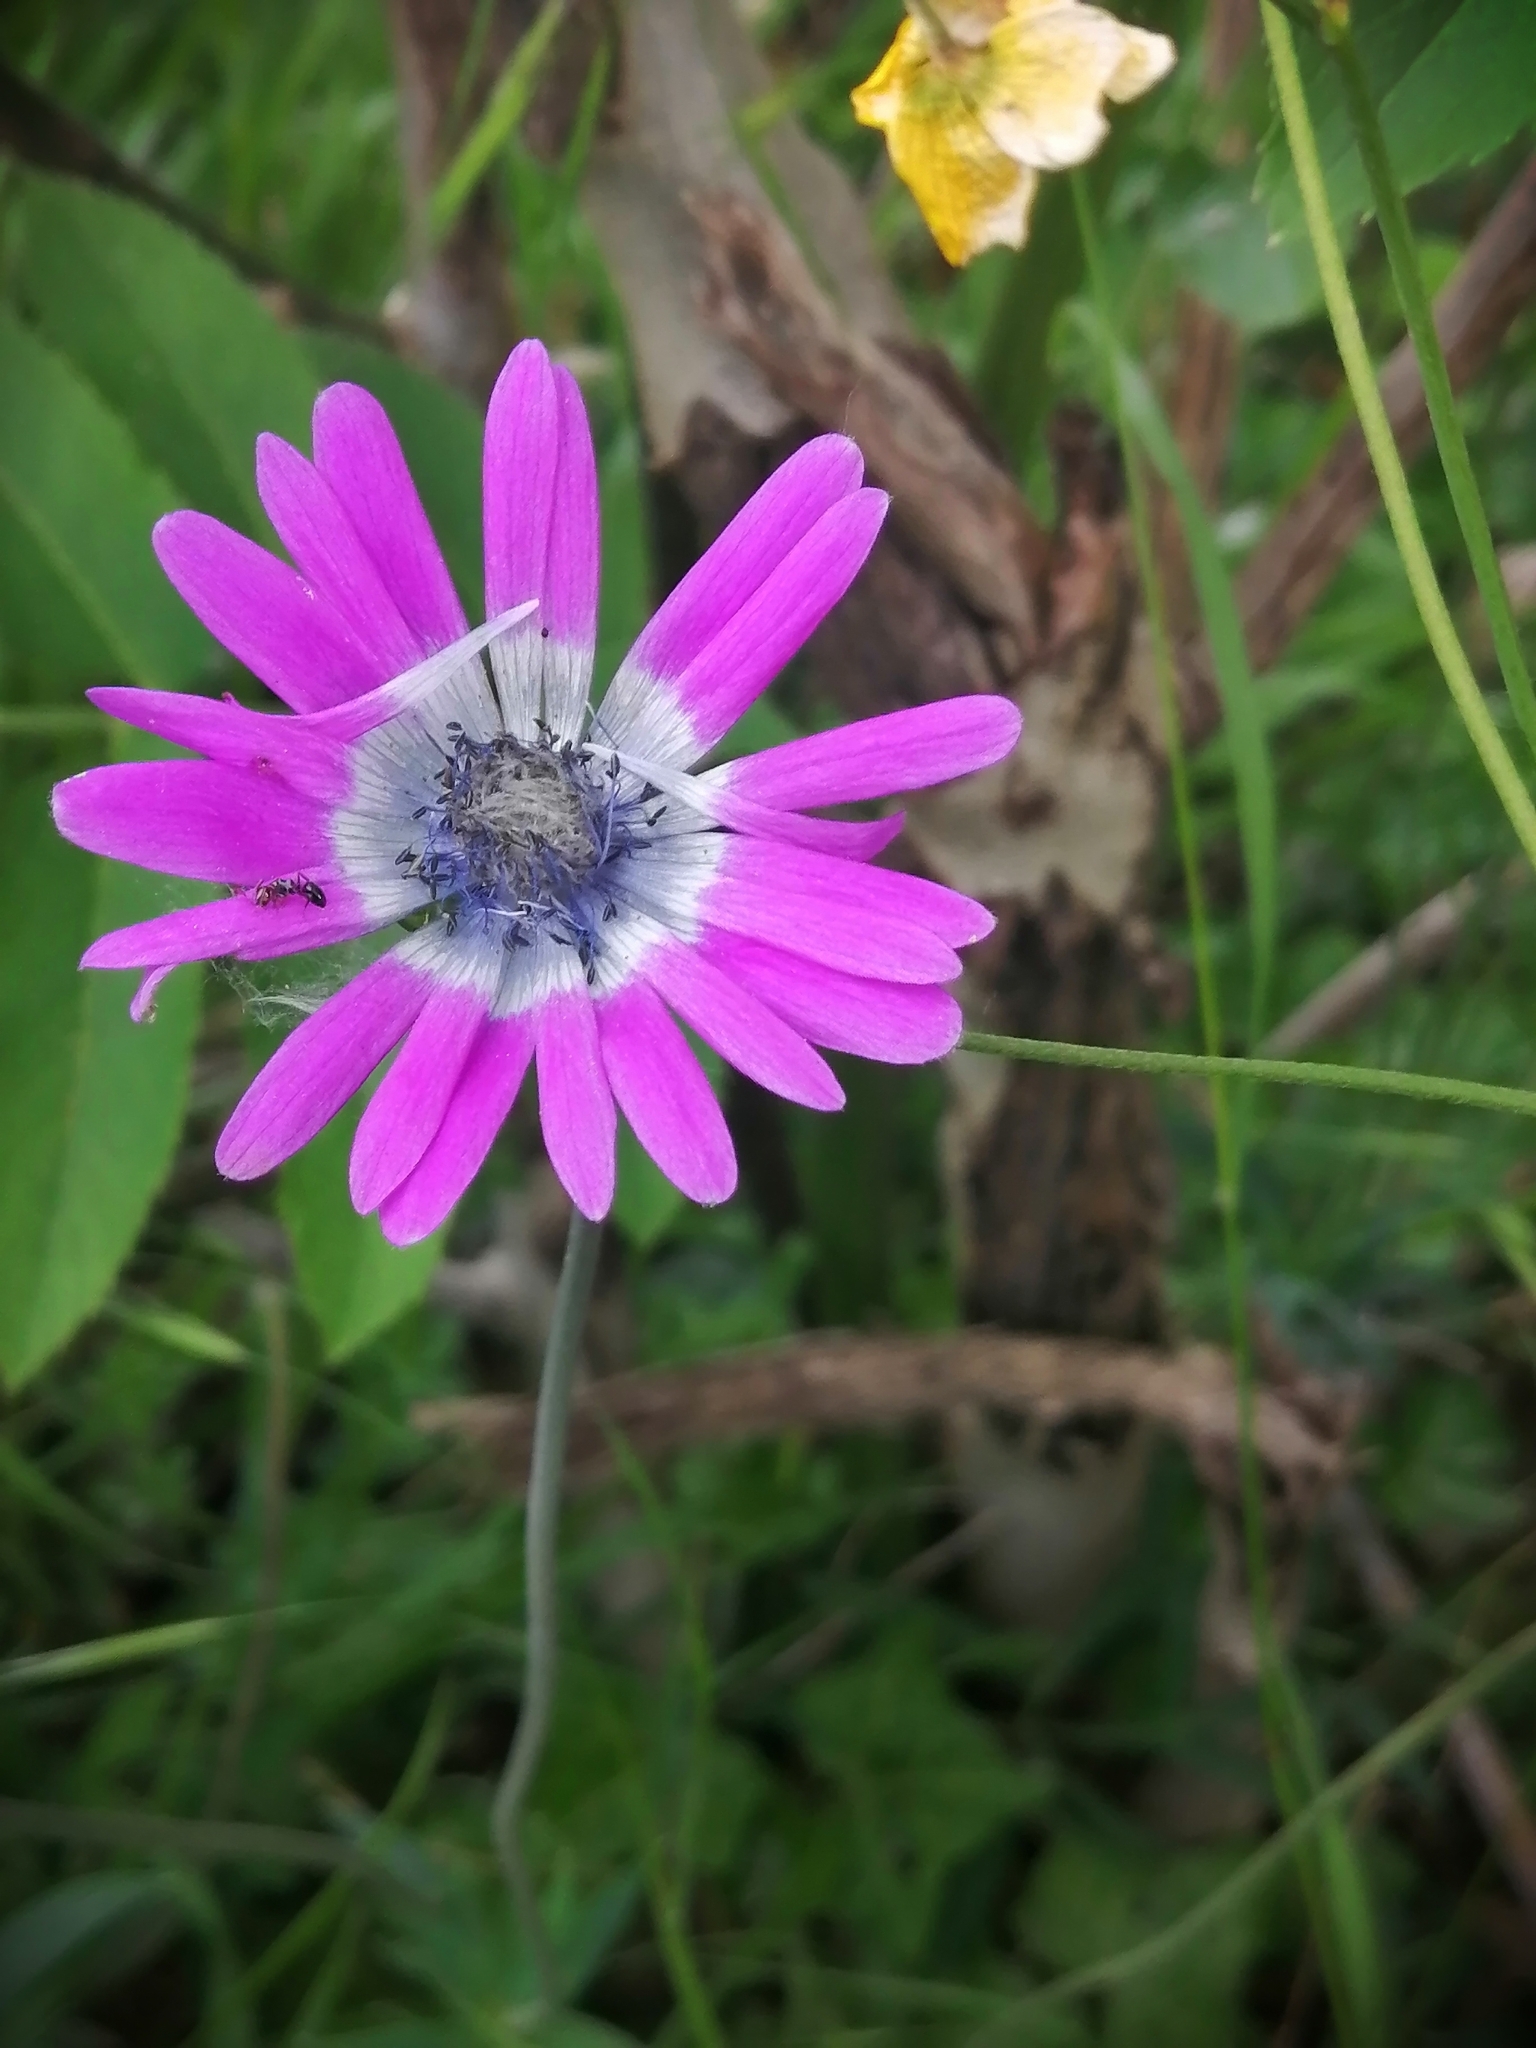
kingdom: Plantae
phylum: Tracheophyta
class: Magnoliopsida
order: Ranunculales
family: Ranunculaceae
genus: Anemone
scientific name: Anemone hortensis
